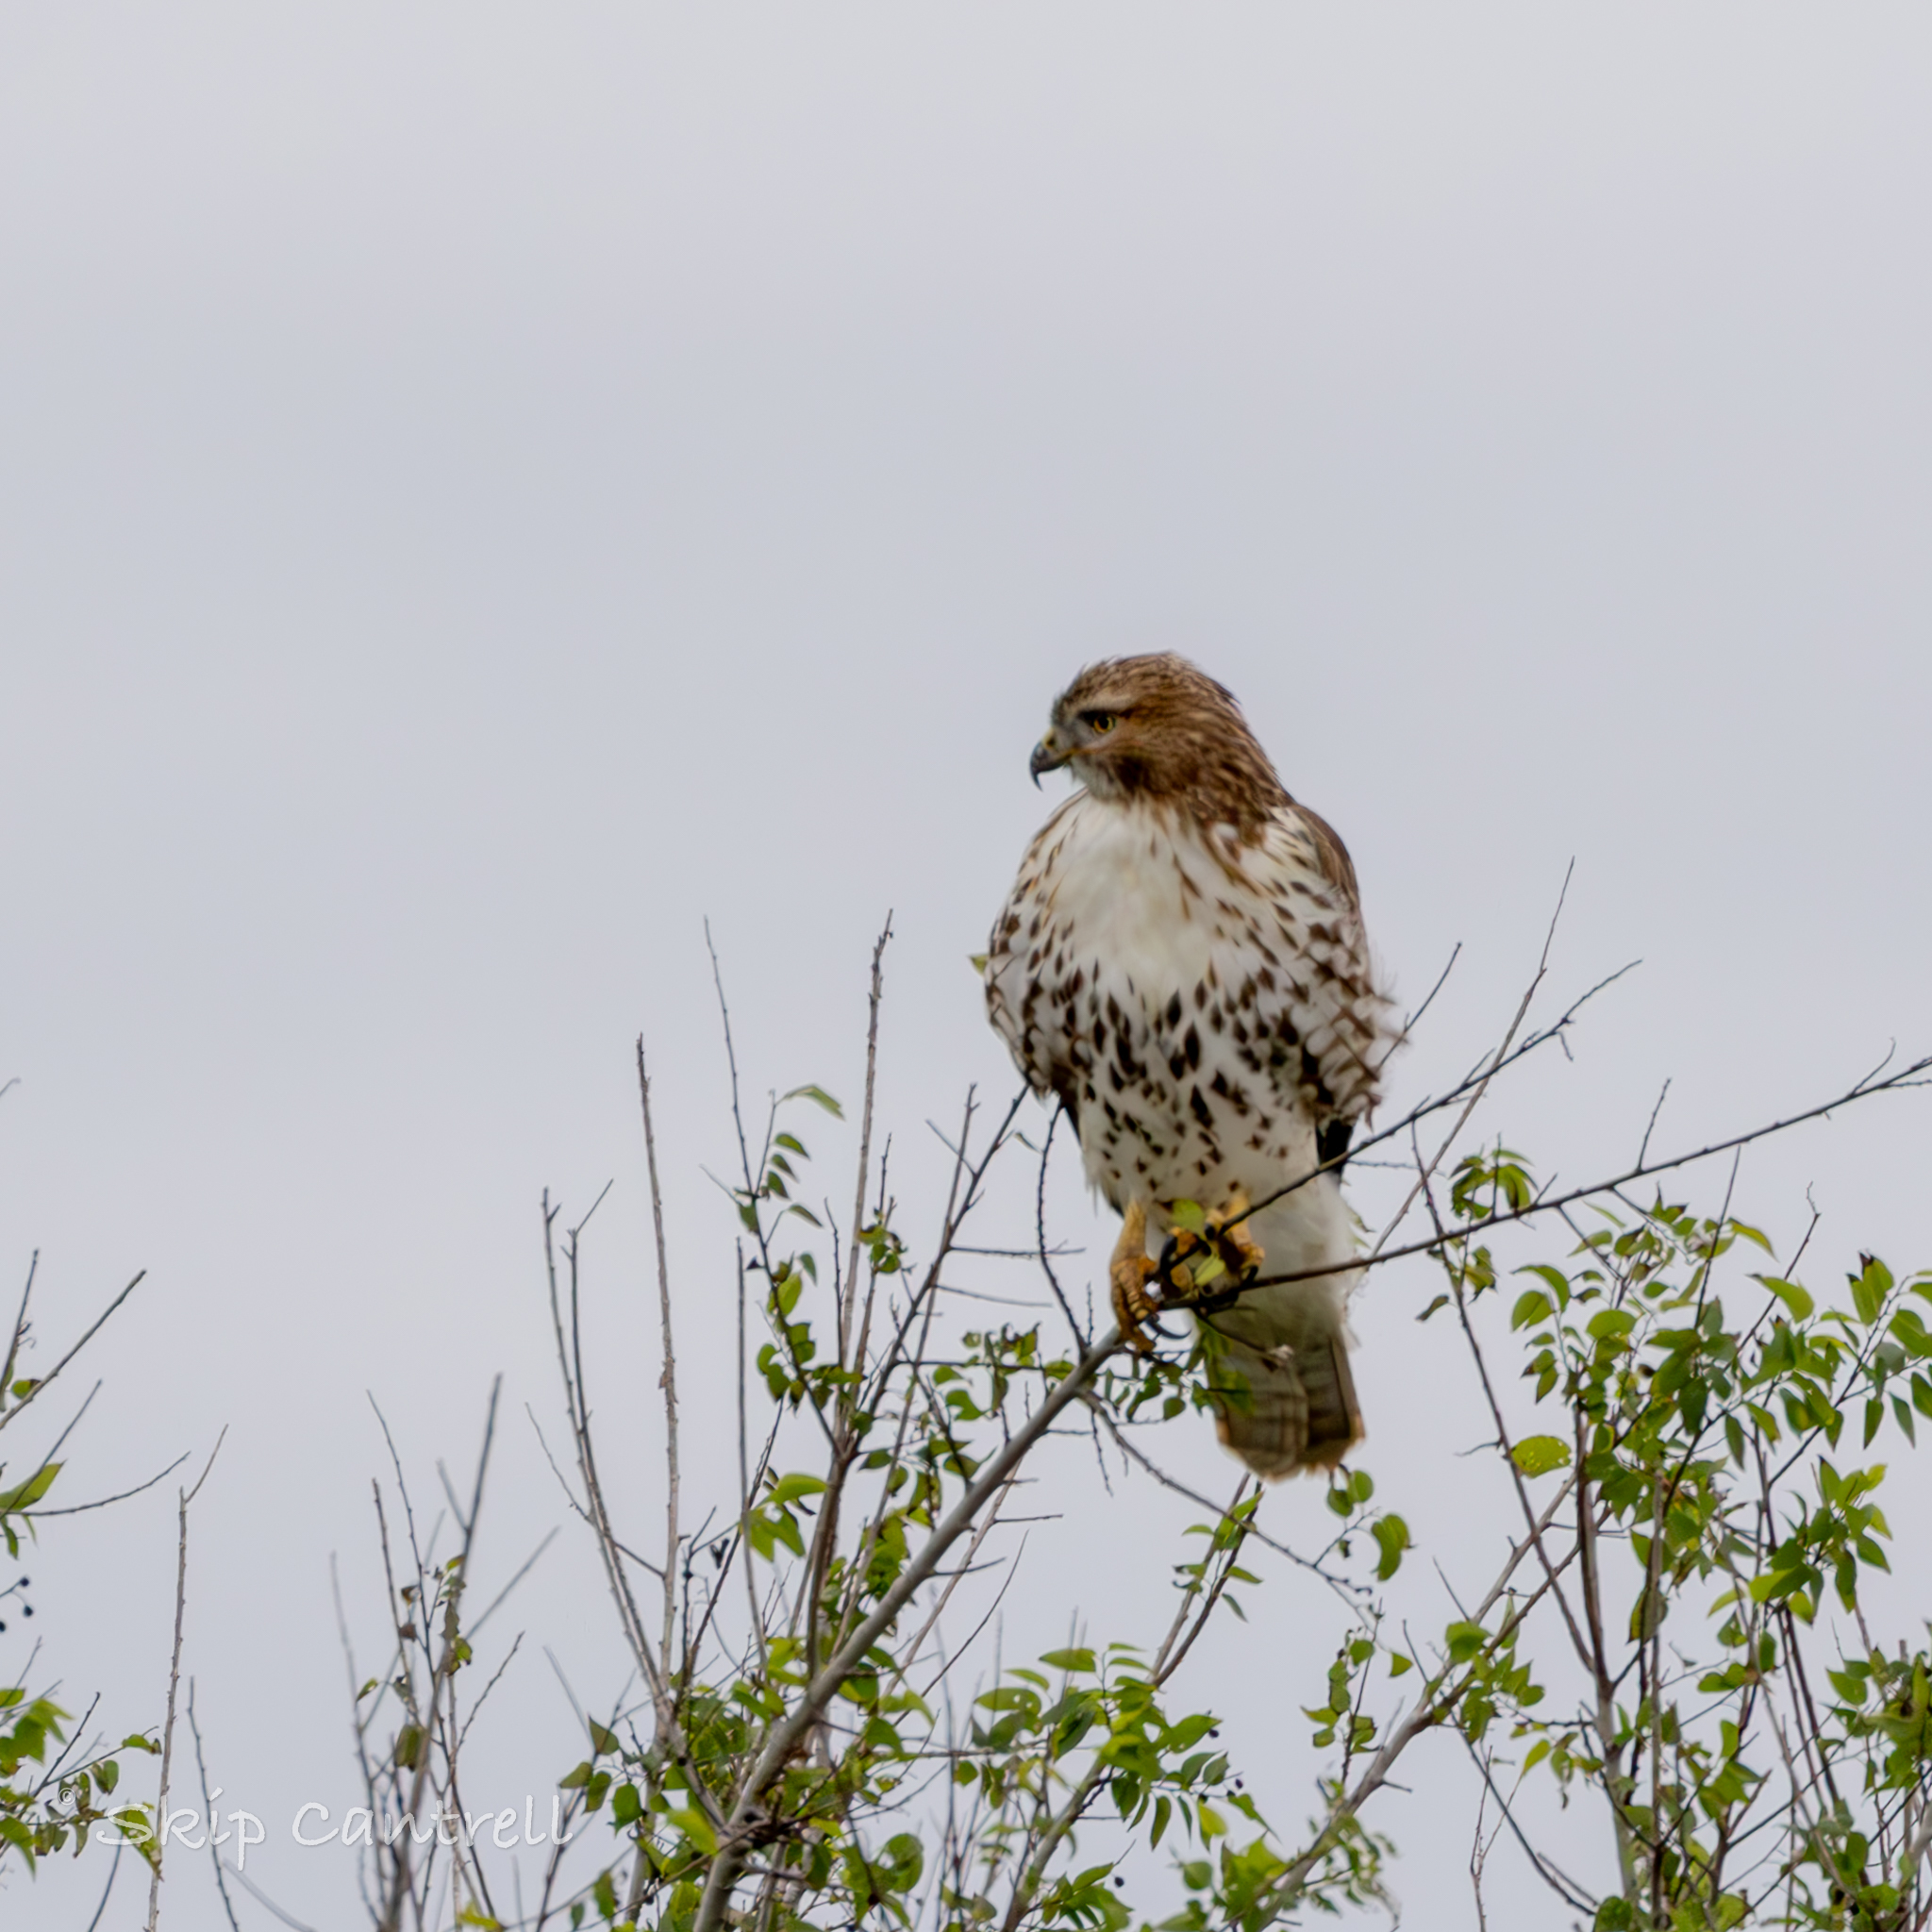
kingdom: Animalia
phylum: Chordata
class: Aves
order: Accipitriformes
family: Accipitridae
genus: Buteo
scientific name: Buteo jamaicensis
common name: Red-tailed hawk
